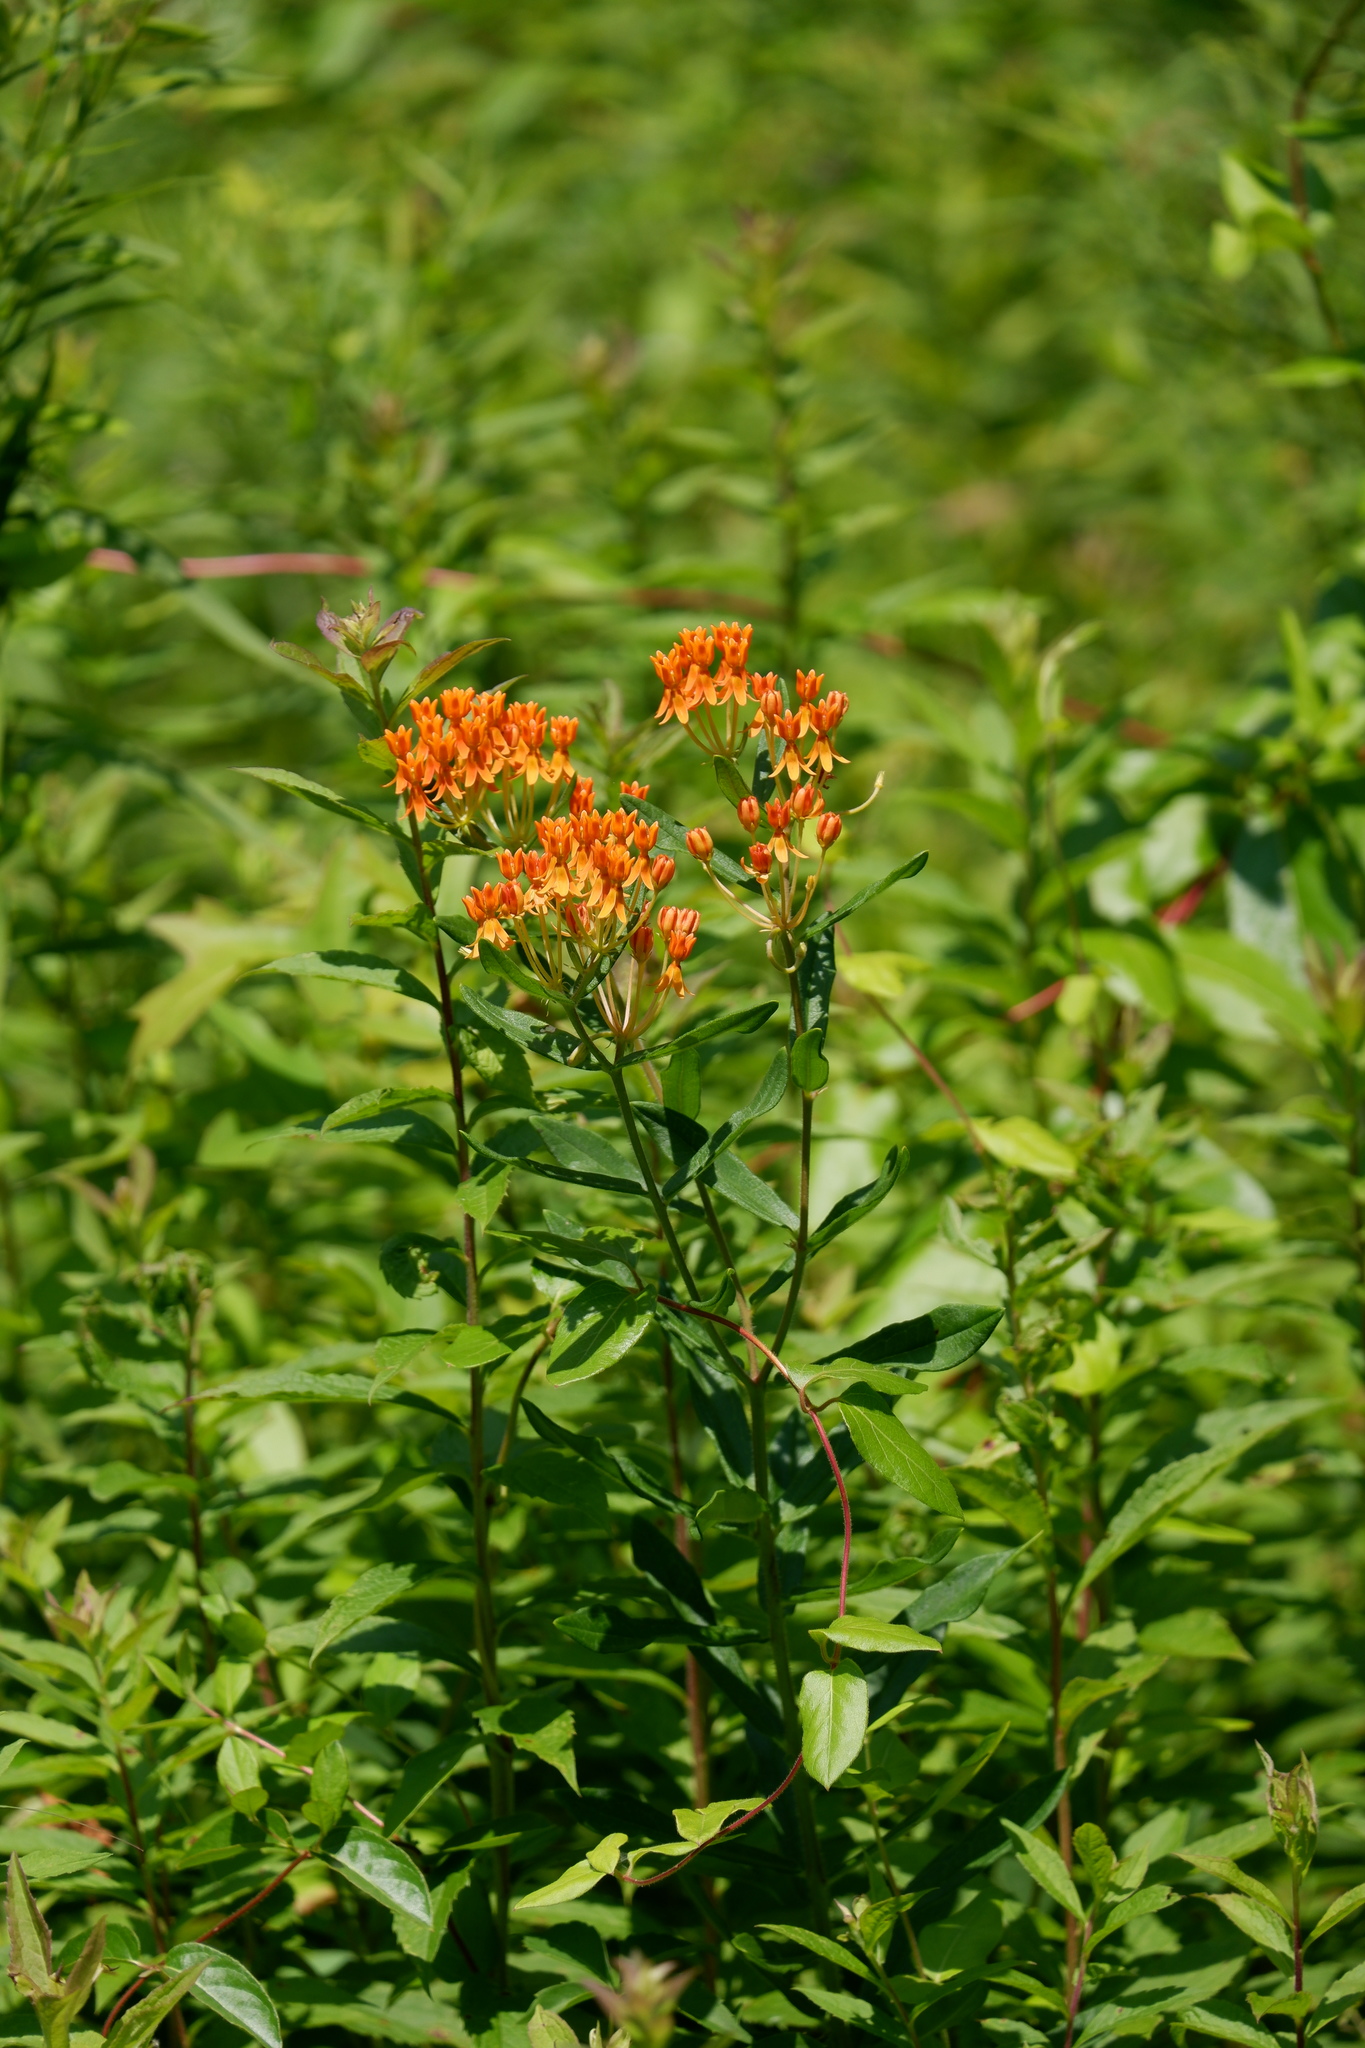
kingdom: Plantae
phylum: Tracheophyta
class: Magnoliopsida
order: Gentianales
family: Apocynaceae
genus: Asclepias
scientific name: Asclepias tuberosa
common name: Butterfly milkweed
